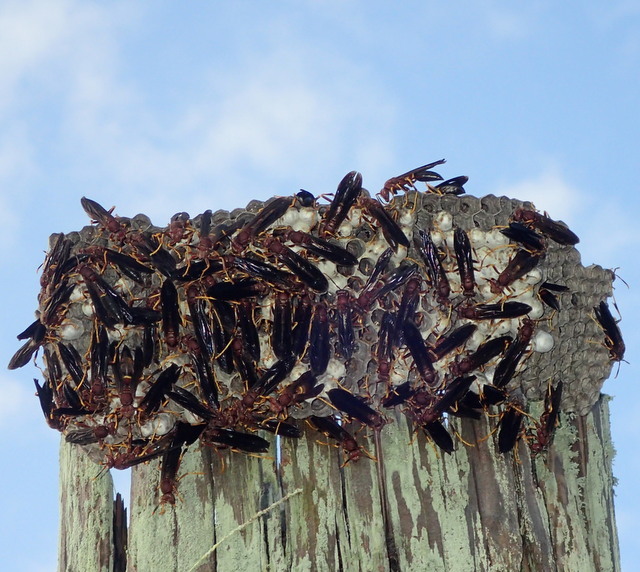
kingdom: Animalia
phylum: Arthropoda
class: Insecta
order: Hymenoptera
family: Eumenidae
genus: Polistes
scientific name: Polistes annularis
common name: Ringed paper wasp
